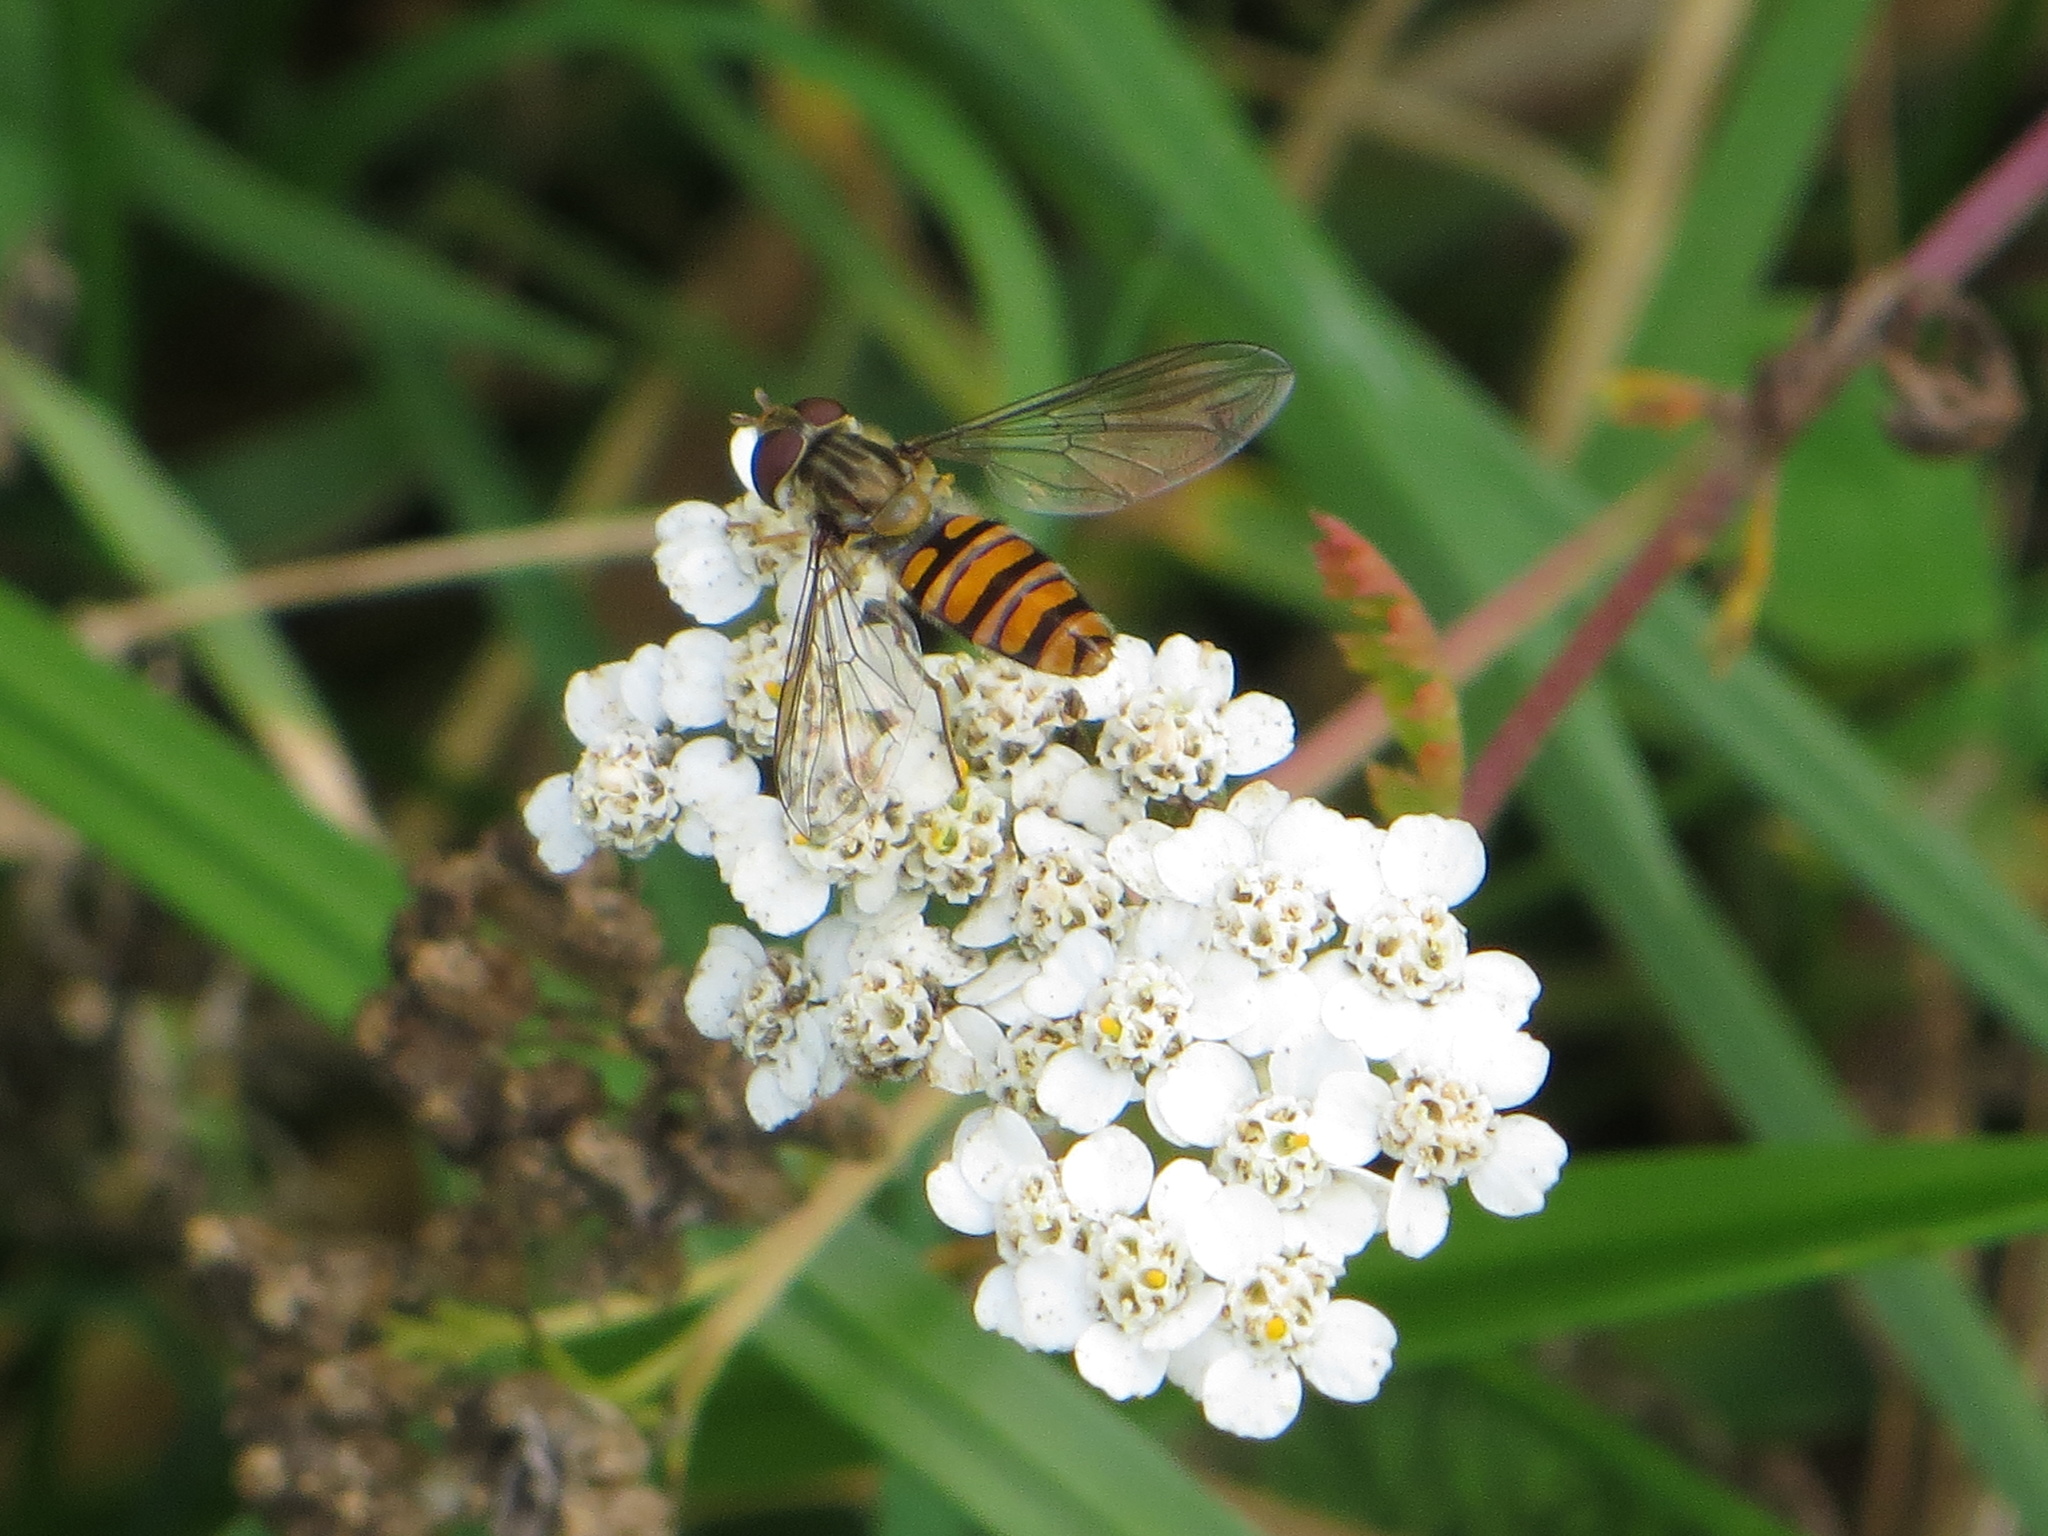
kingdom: Animalia
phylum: Arthropoda
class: Insecta
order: Diptera
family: Syrphidae
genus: Episyrphus
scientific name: Episyrphus balteatus
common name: Marmalade hoverfly
